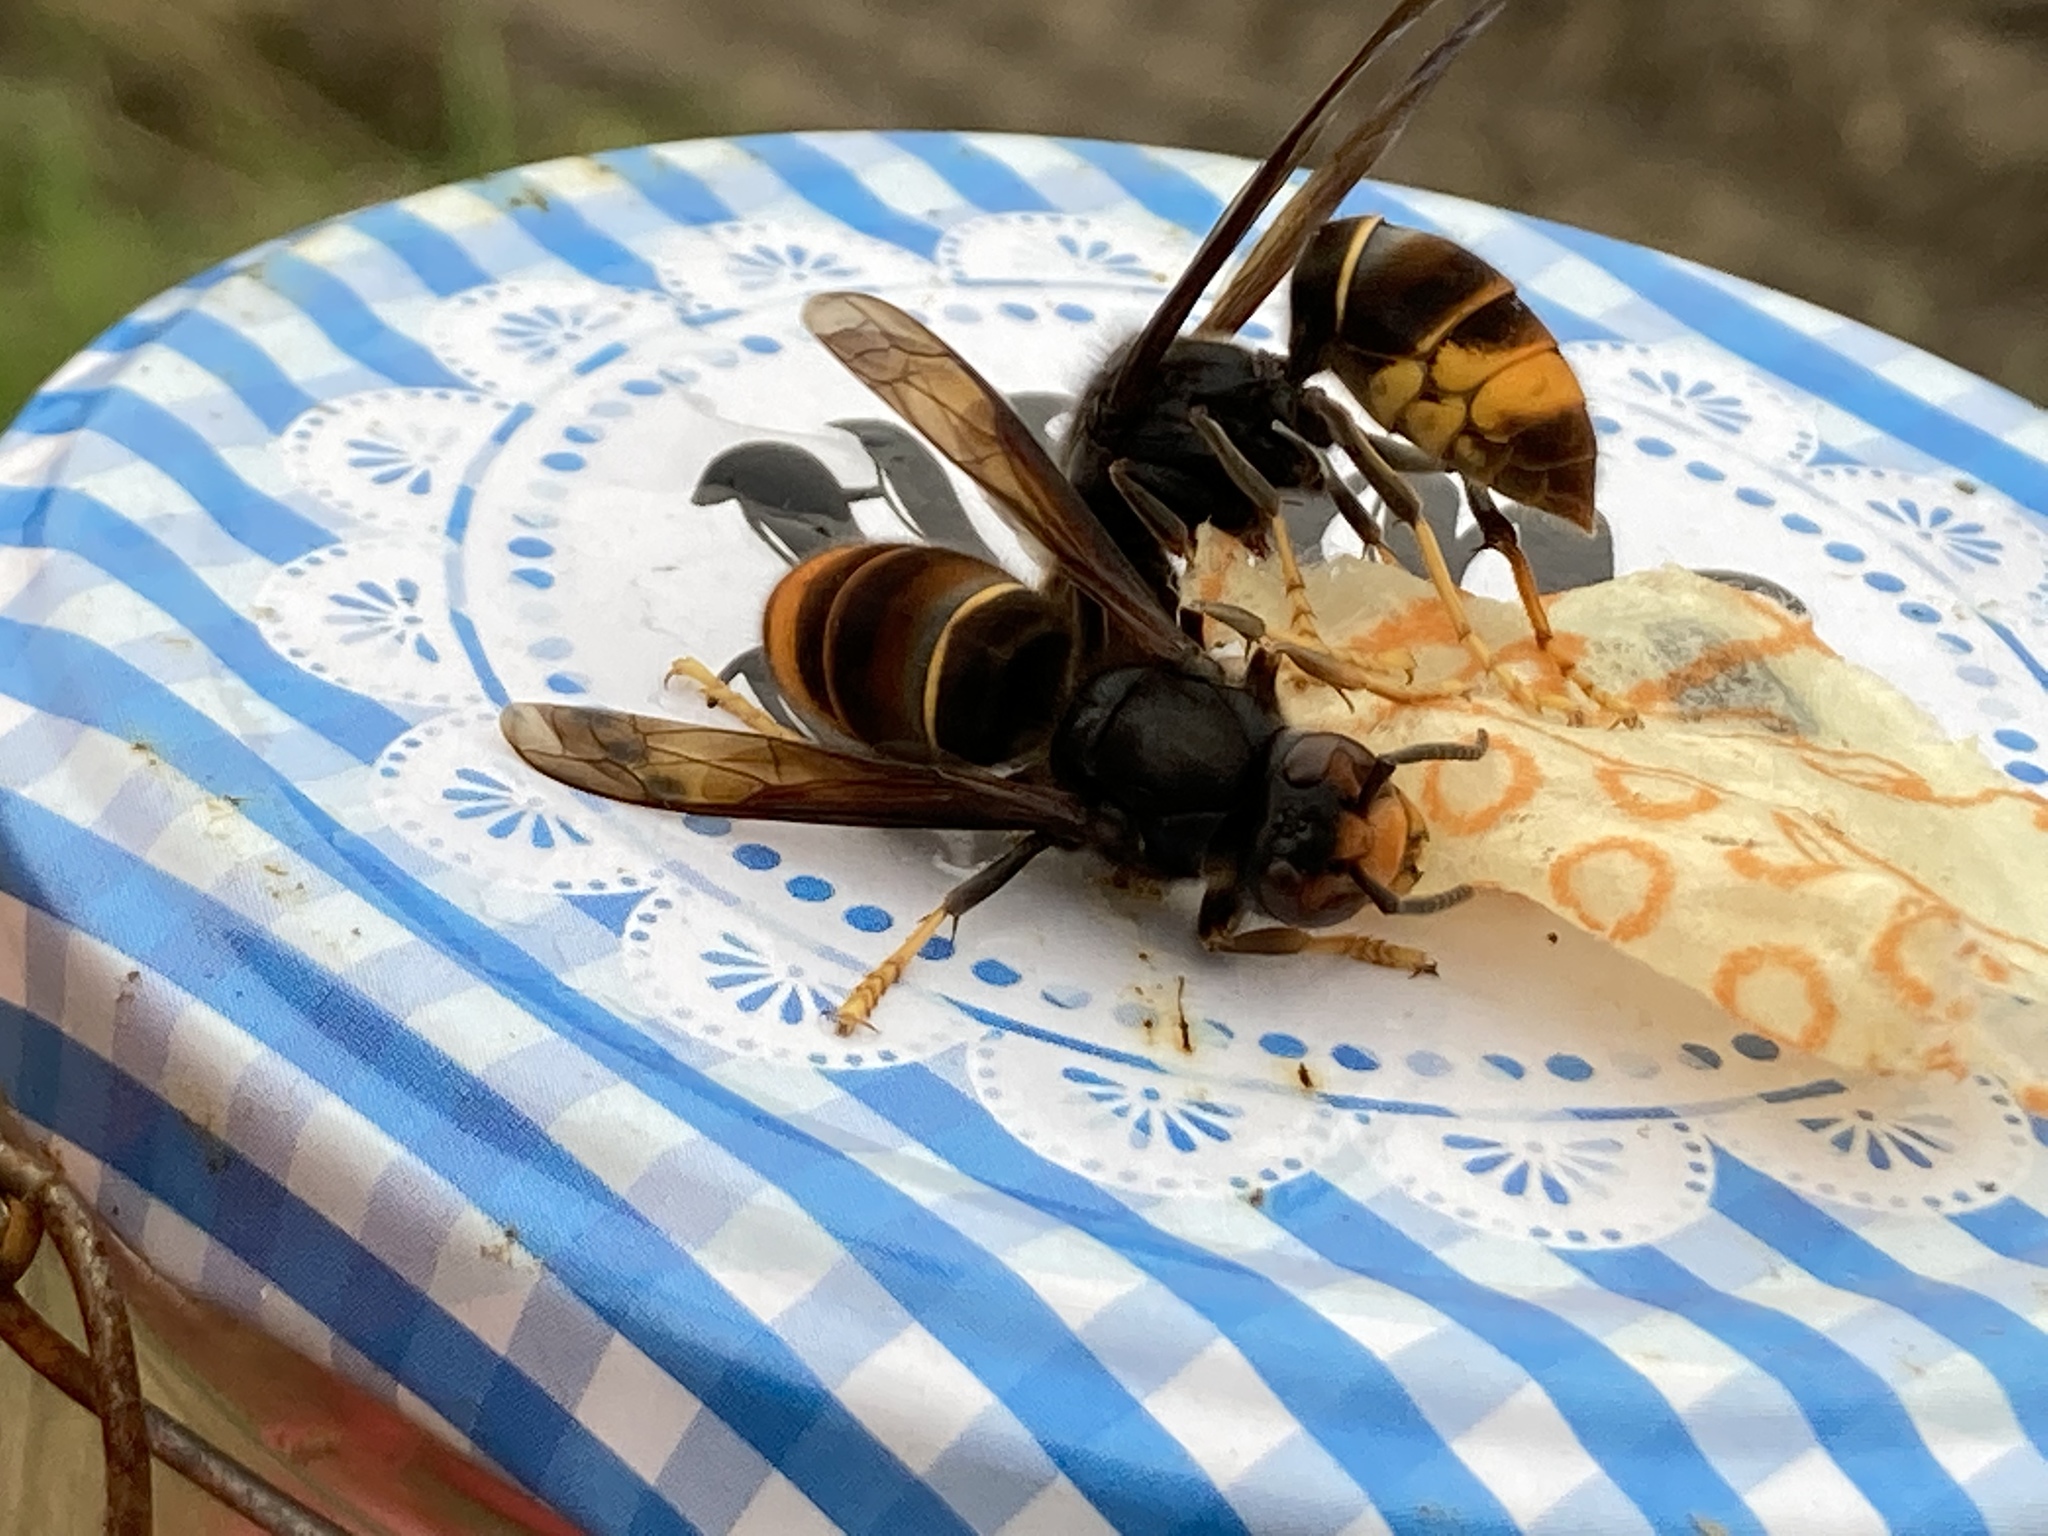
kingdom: Animalia
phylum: Arthropoda
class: Insecta
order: Hymenoptera
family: Vespidae
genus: Vespa
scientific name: Vespa velutina
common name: Asian hornet
